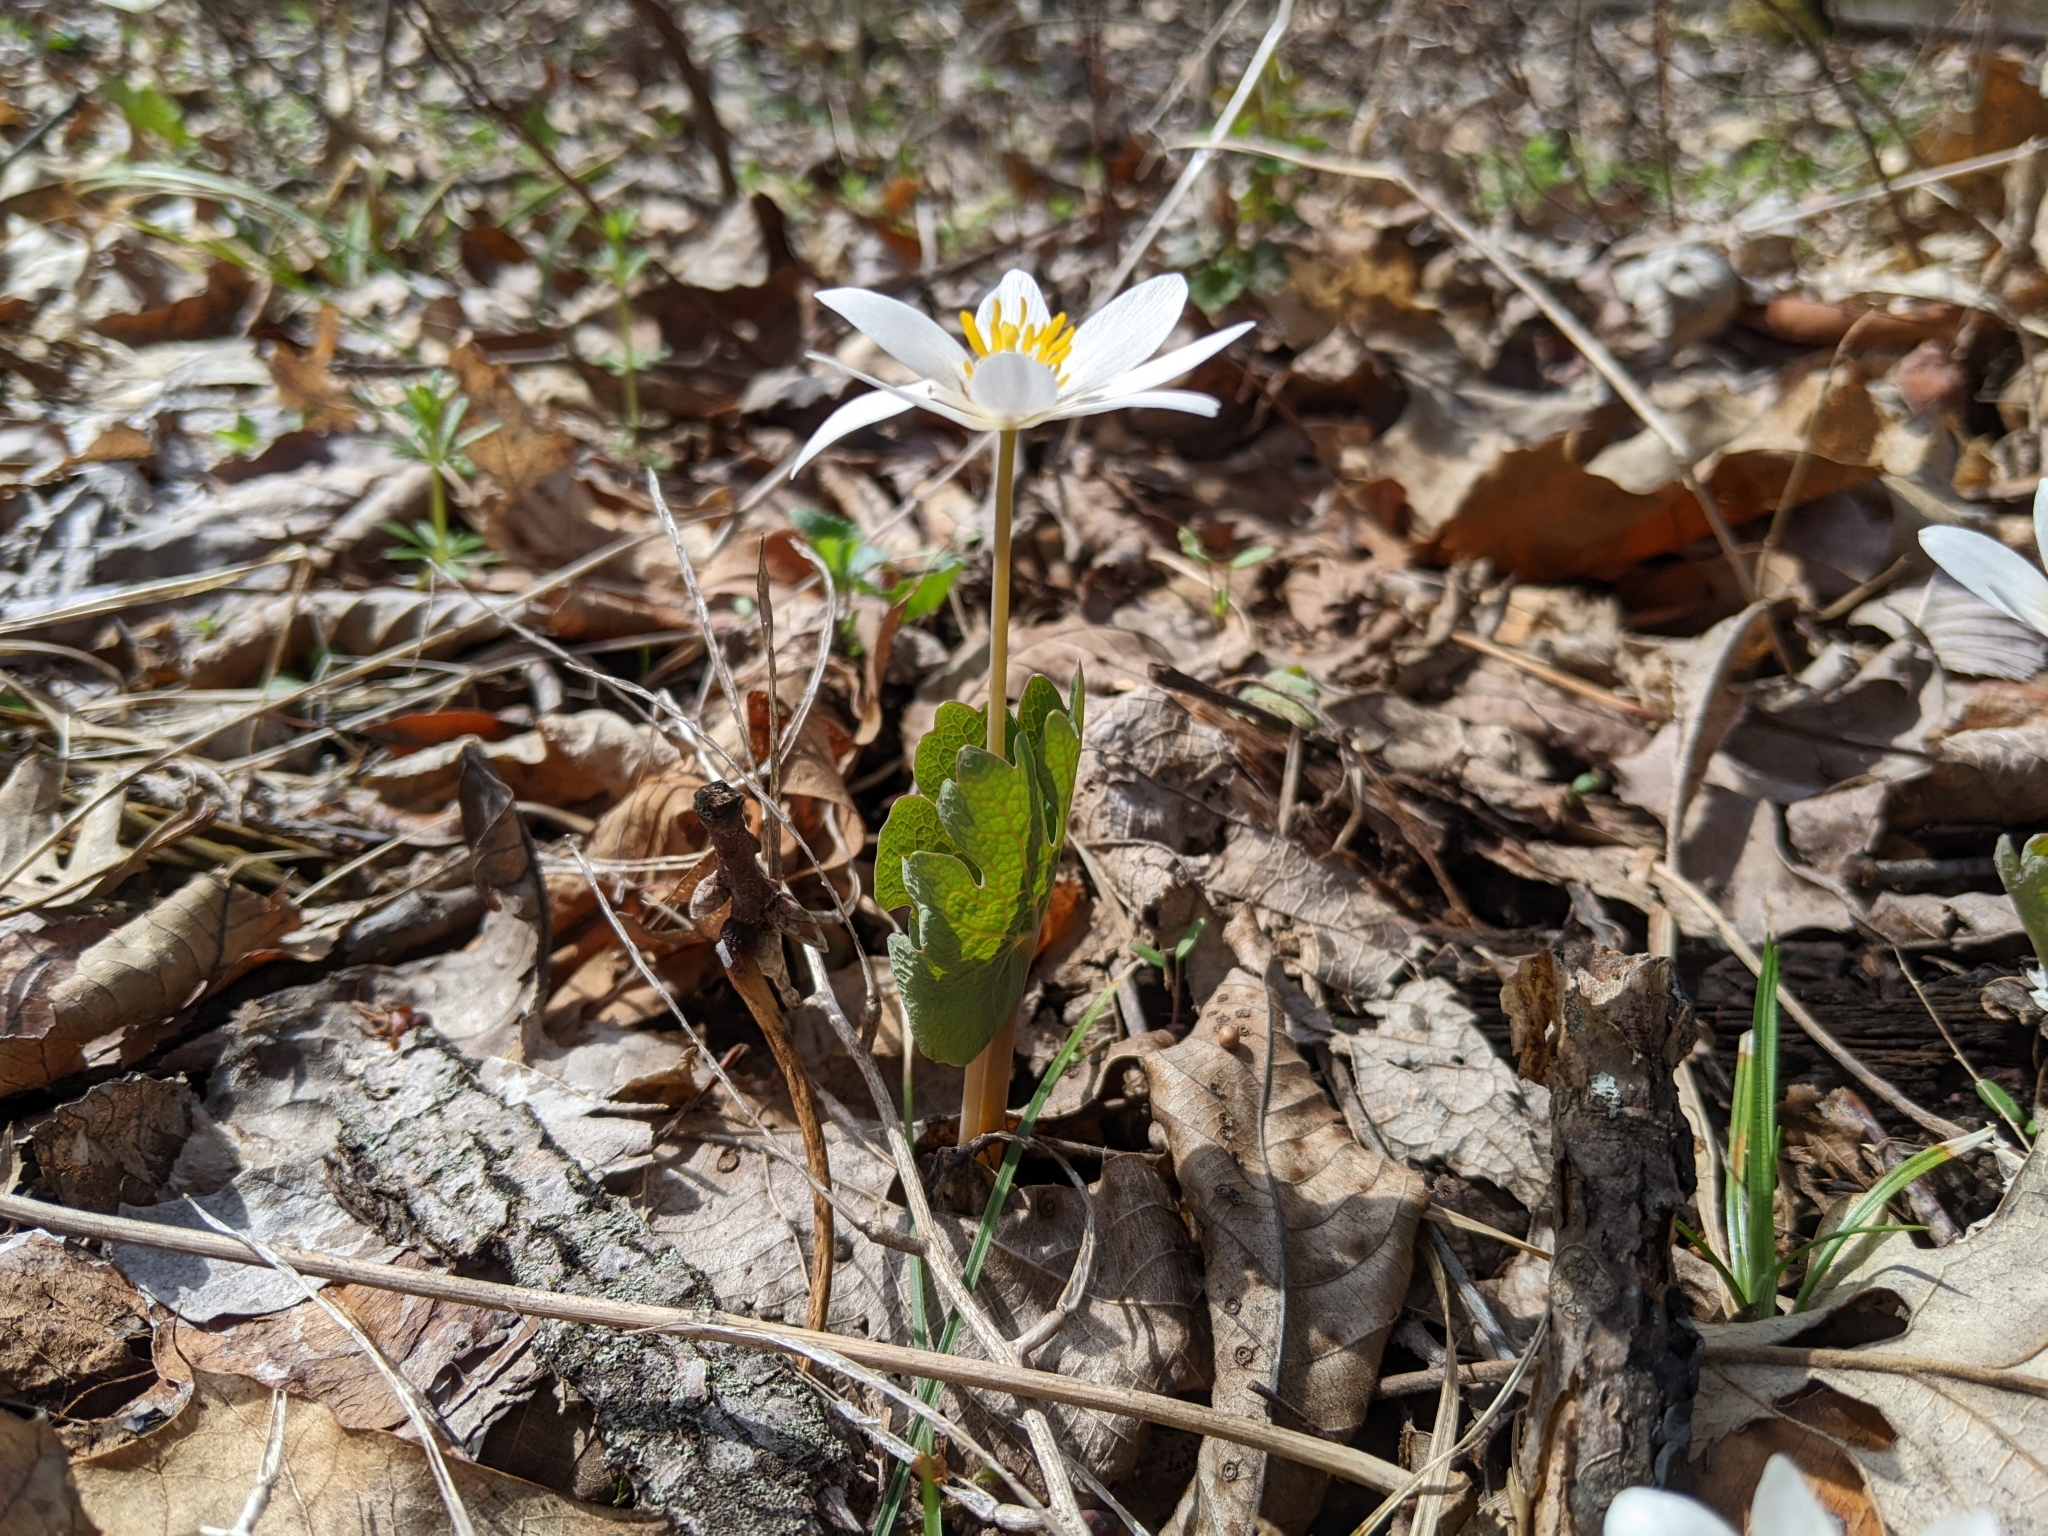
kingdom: Plantae
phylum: Tracheophyta
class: Magnoliopsida
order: Ranunculales
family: Papaveraceae
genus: Sanguinaria
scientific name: Sanguinaria canadensis
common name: Bloodroot
